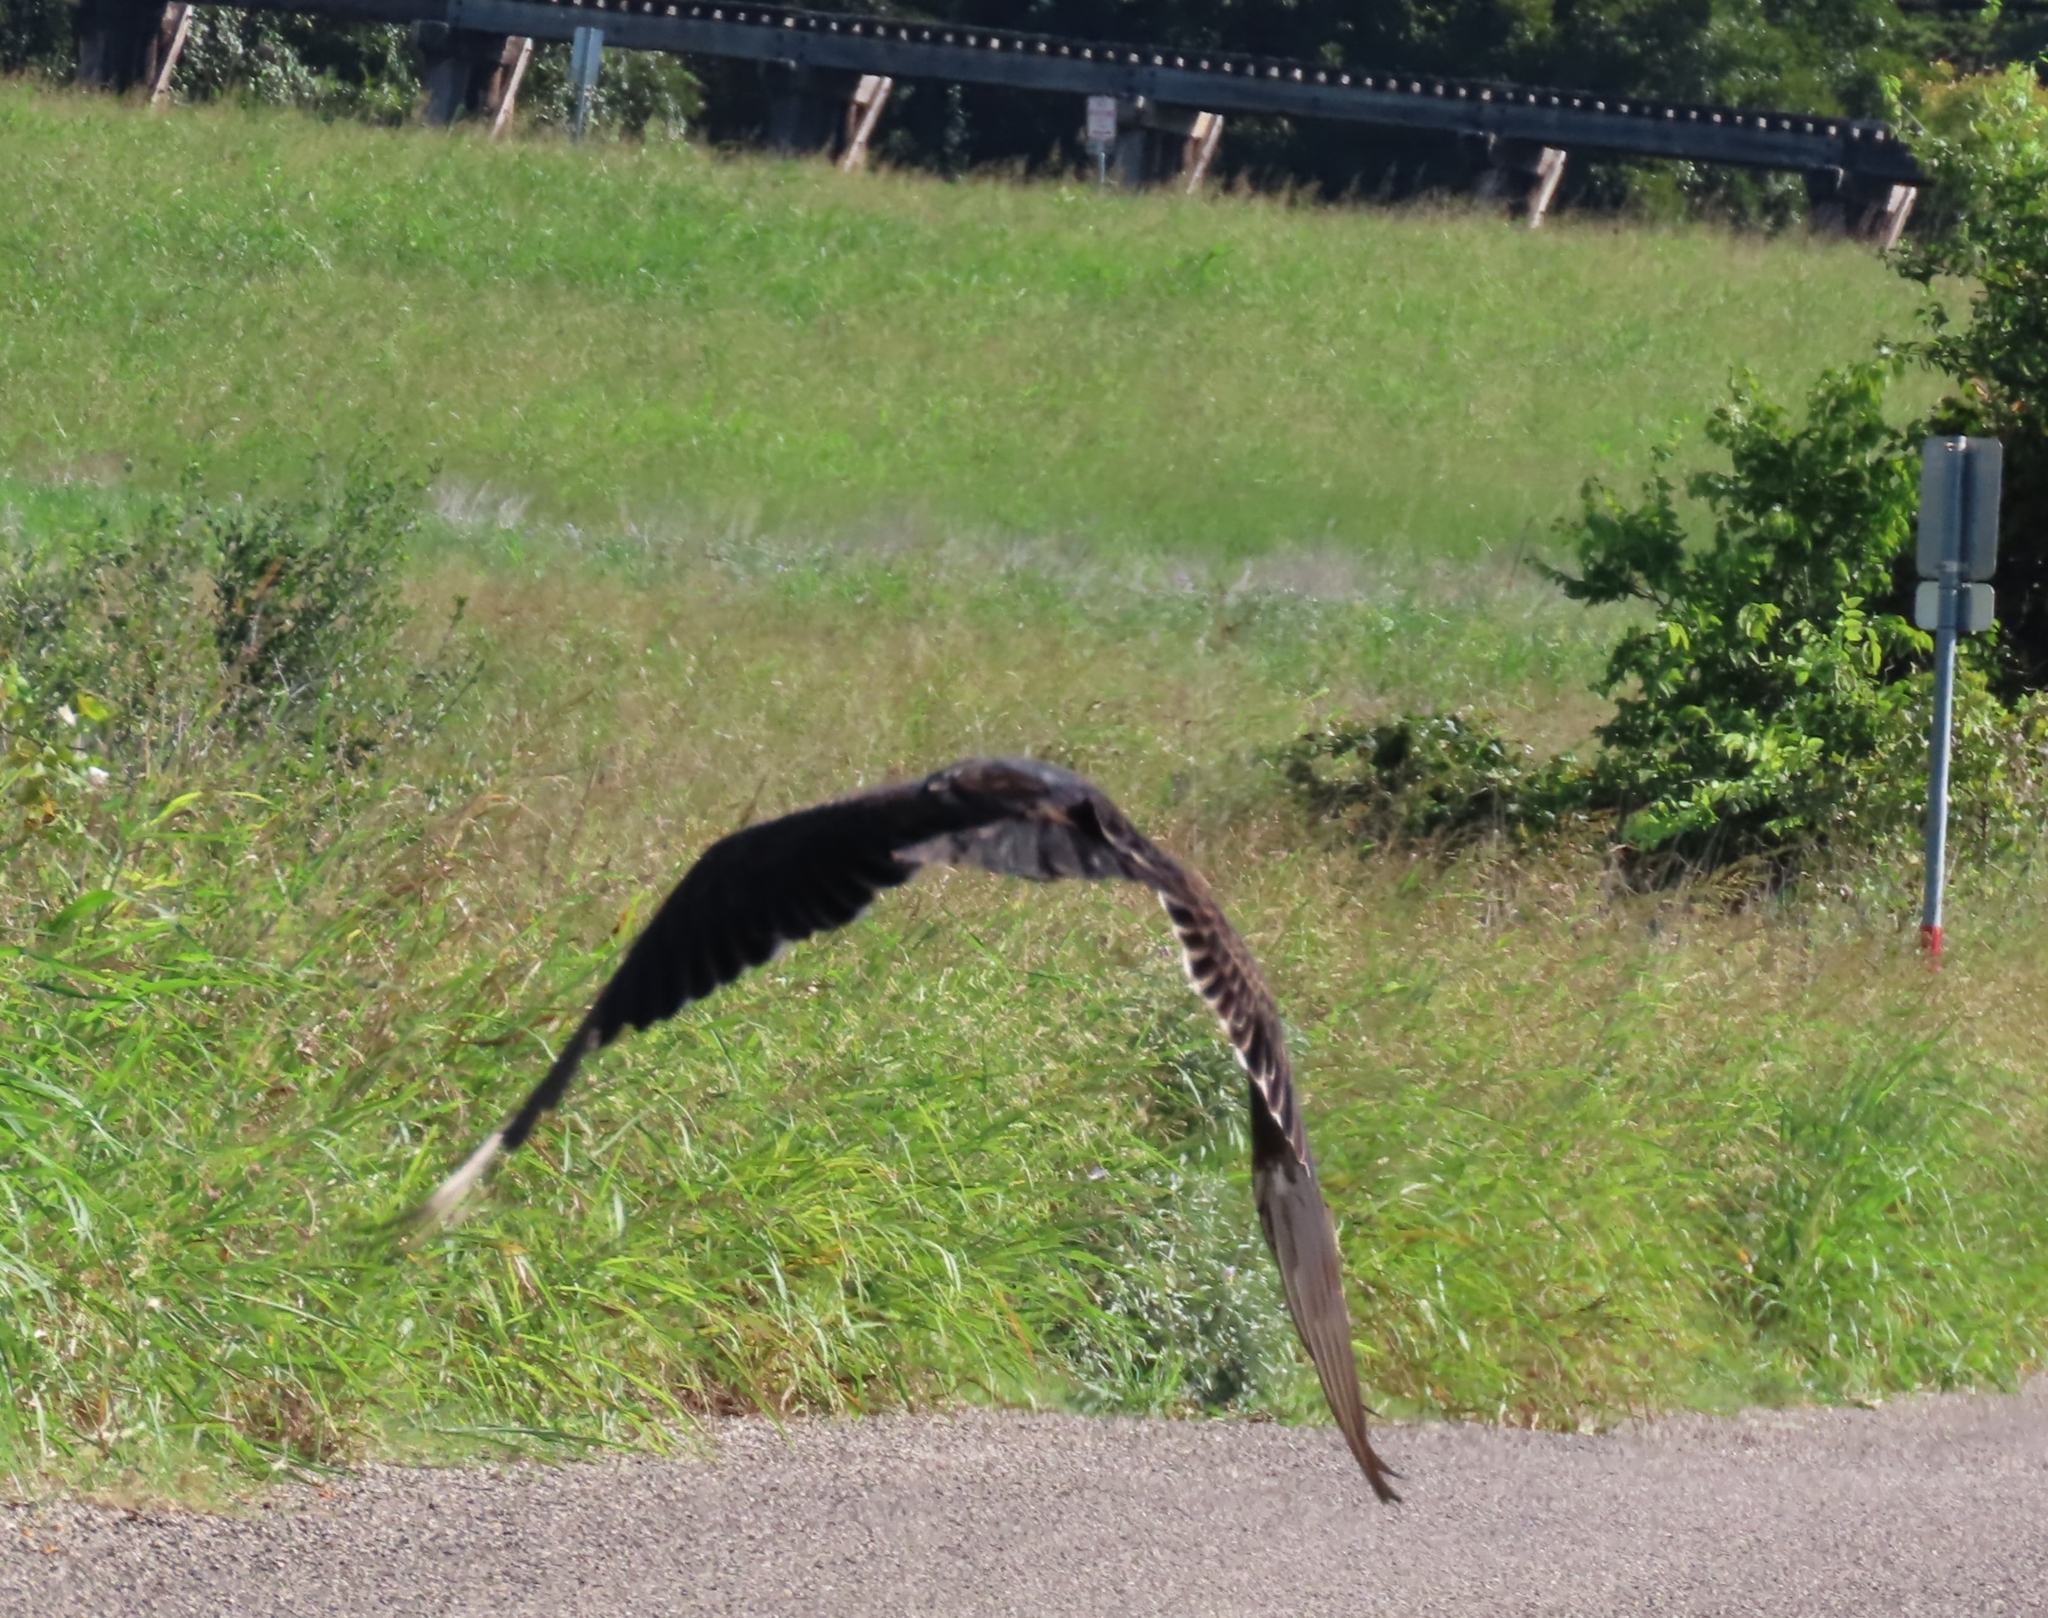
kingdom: Animalia
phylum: Chordata
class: Aves
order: Accipitriformes
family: Cathartidae
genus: Cathartes
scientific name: Cathartes aura
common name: Turkey vulture
